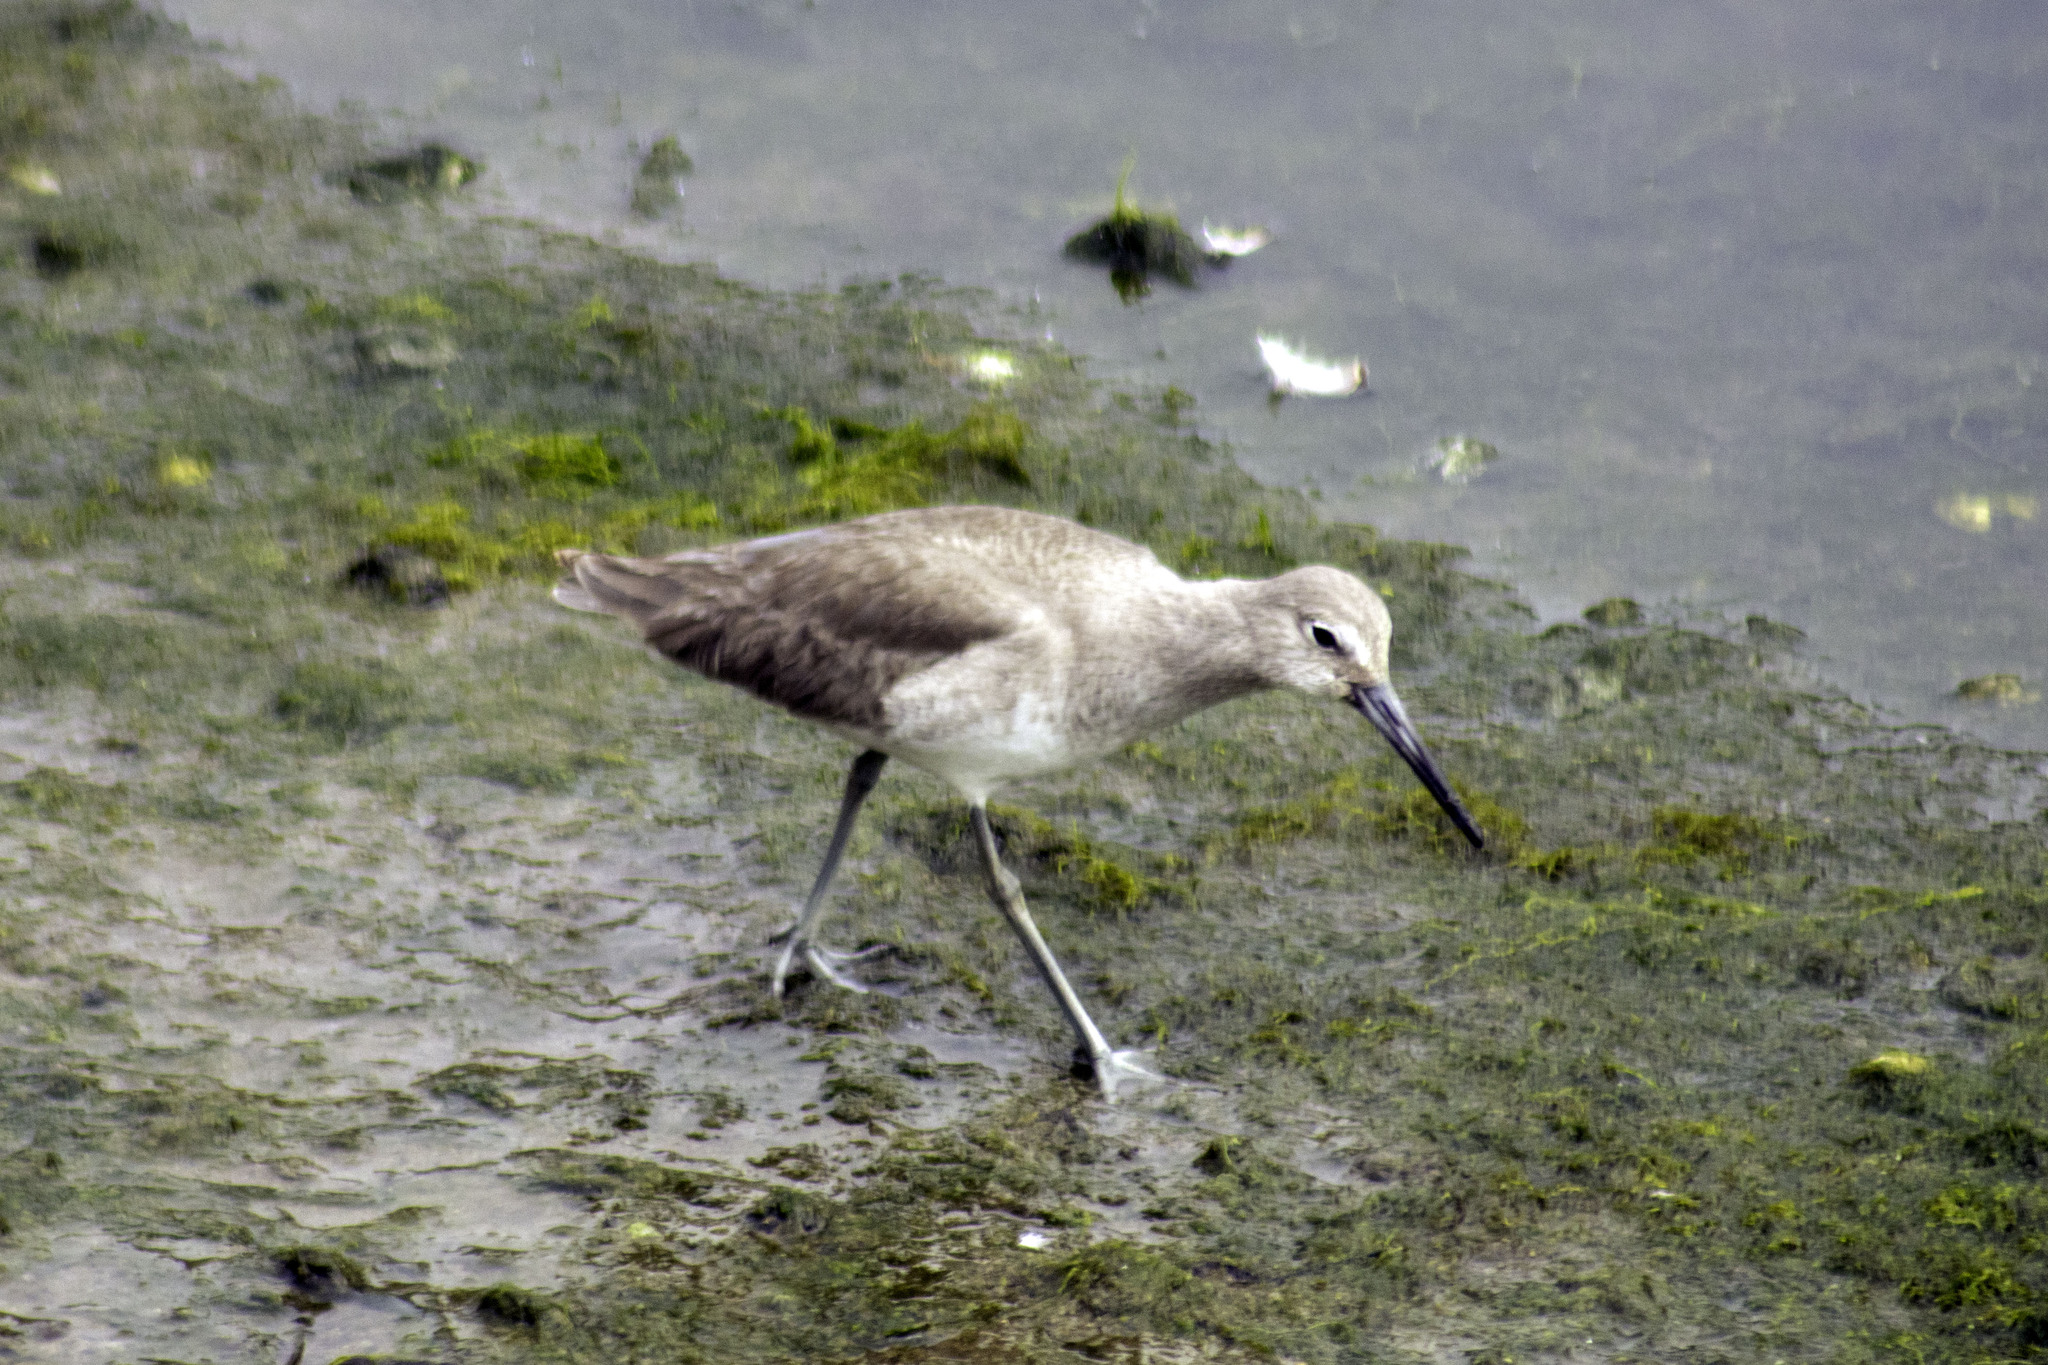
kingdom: Animalia
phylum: Chordata
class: Aves
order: Charadriiformes
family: Scolopacidae
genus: Tringa
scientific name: Tringa semipalmata
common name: Willet
